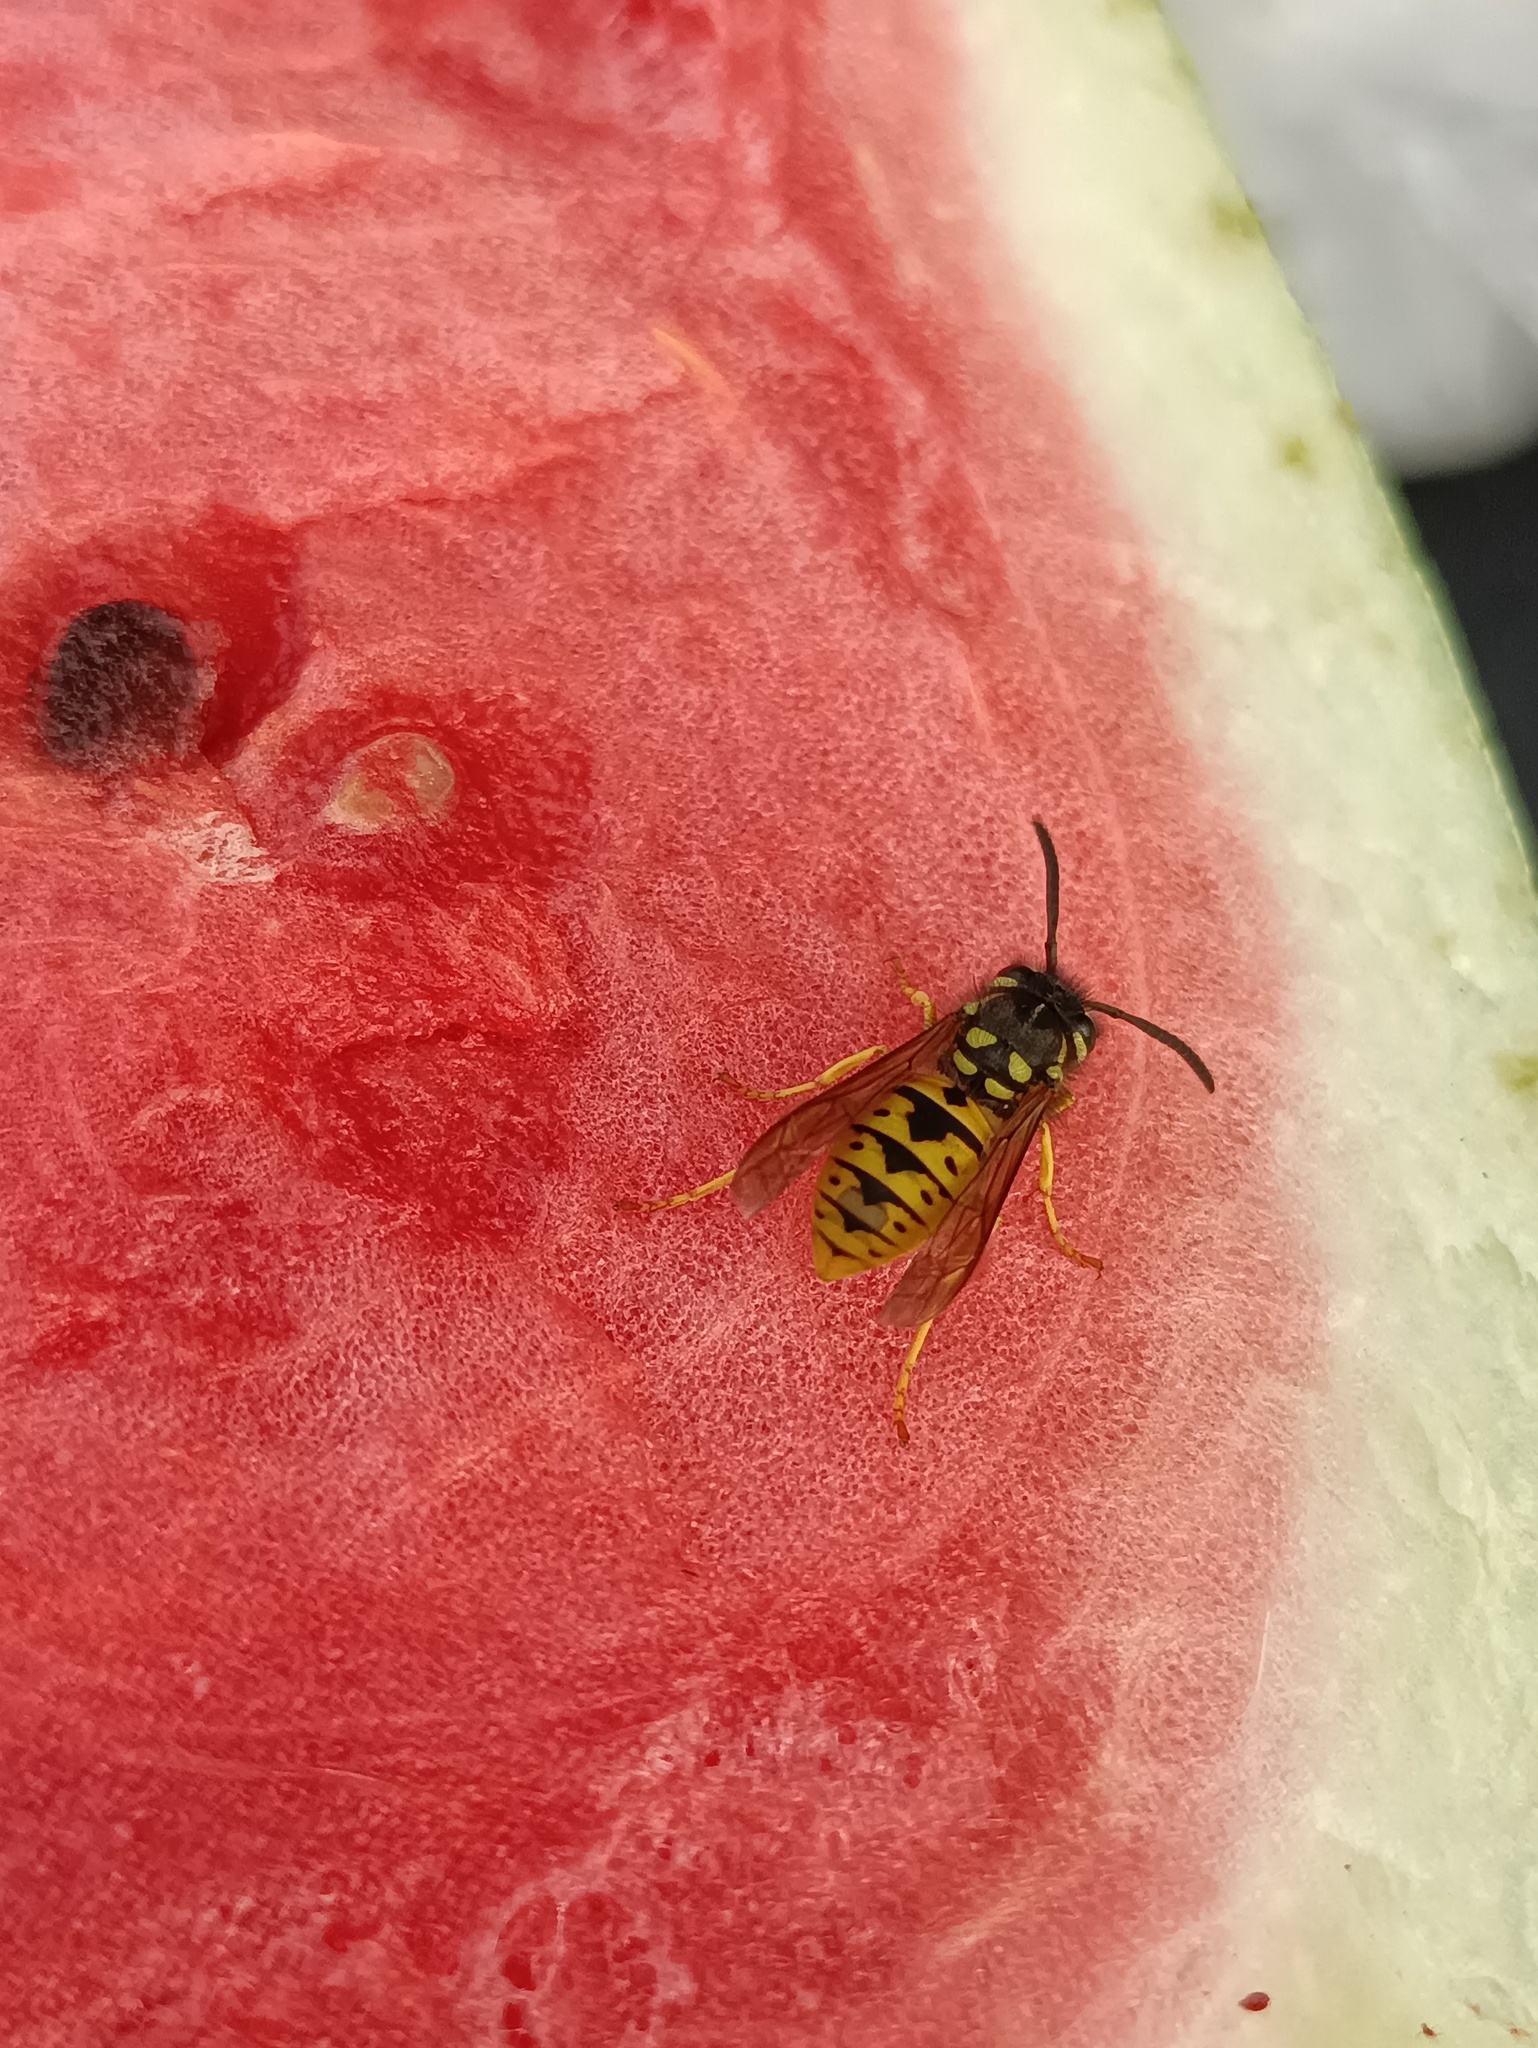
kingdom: Animalia
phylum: Arthropoda
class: Insecta
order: Hymenoptera
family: Vespidae
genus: Vespula
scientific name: Vespula germanica
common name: German wasp
